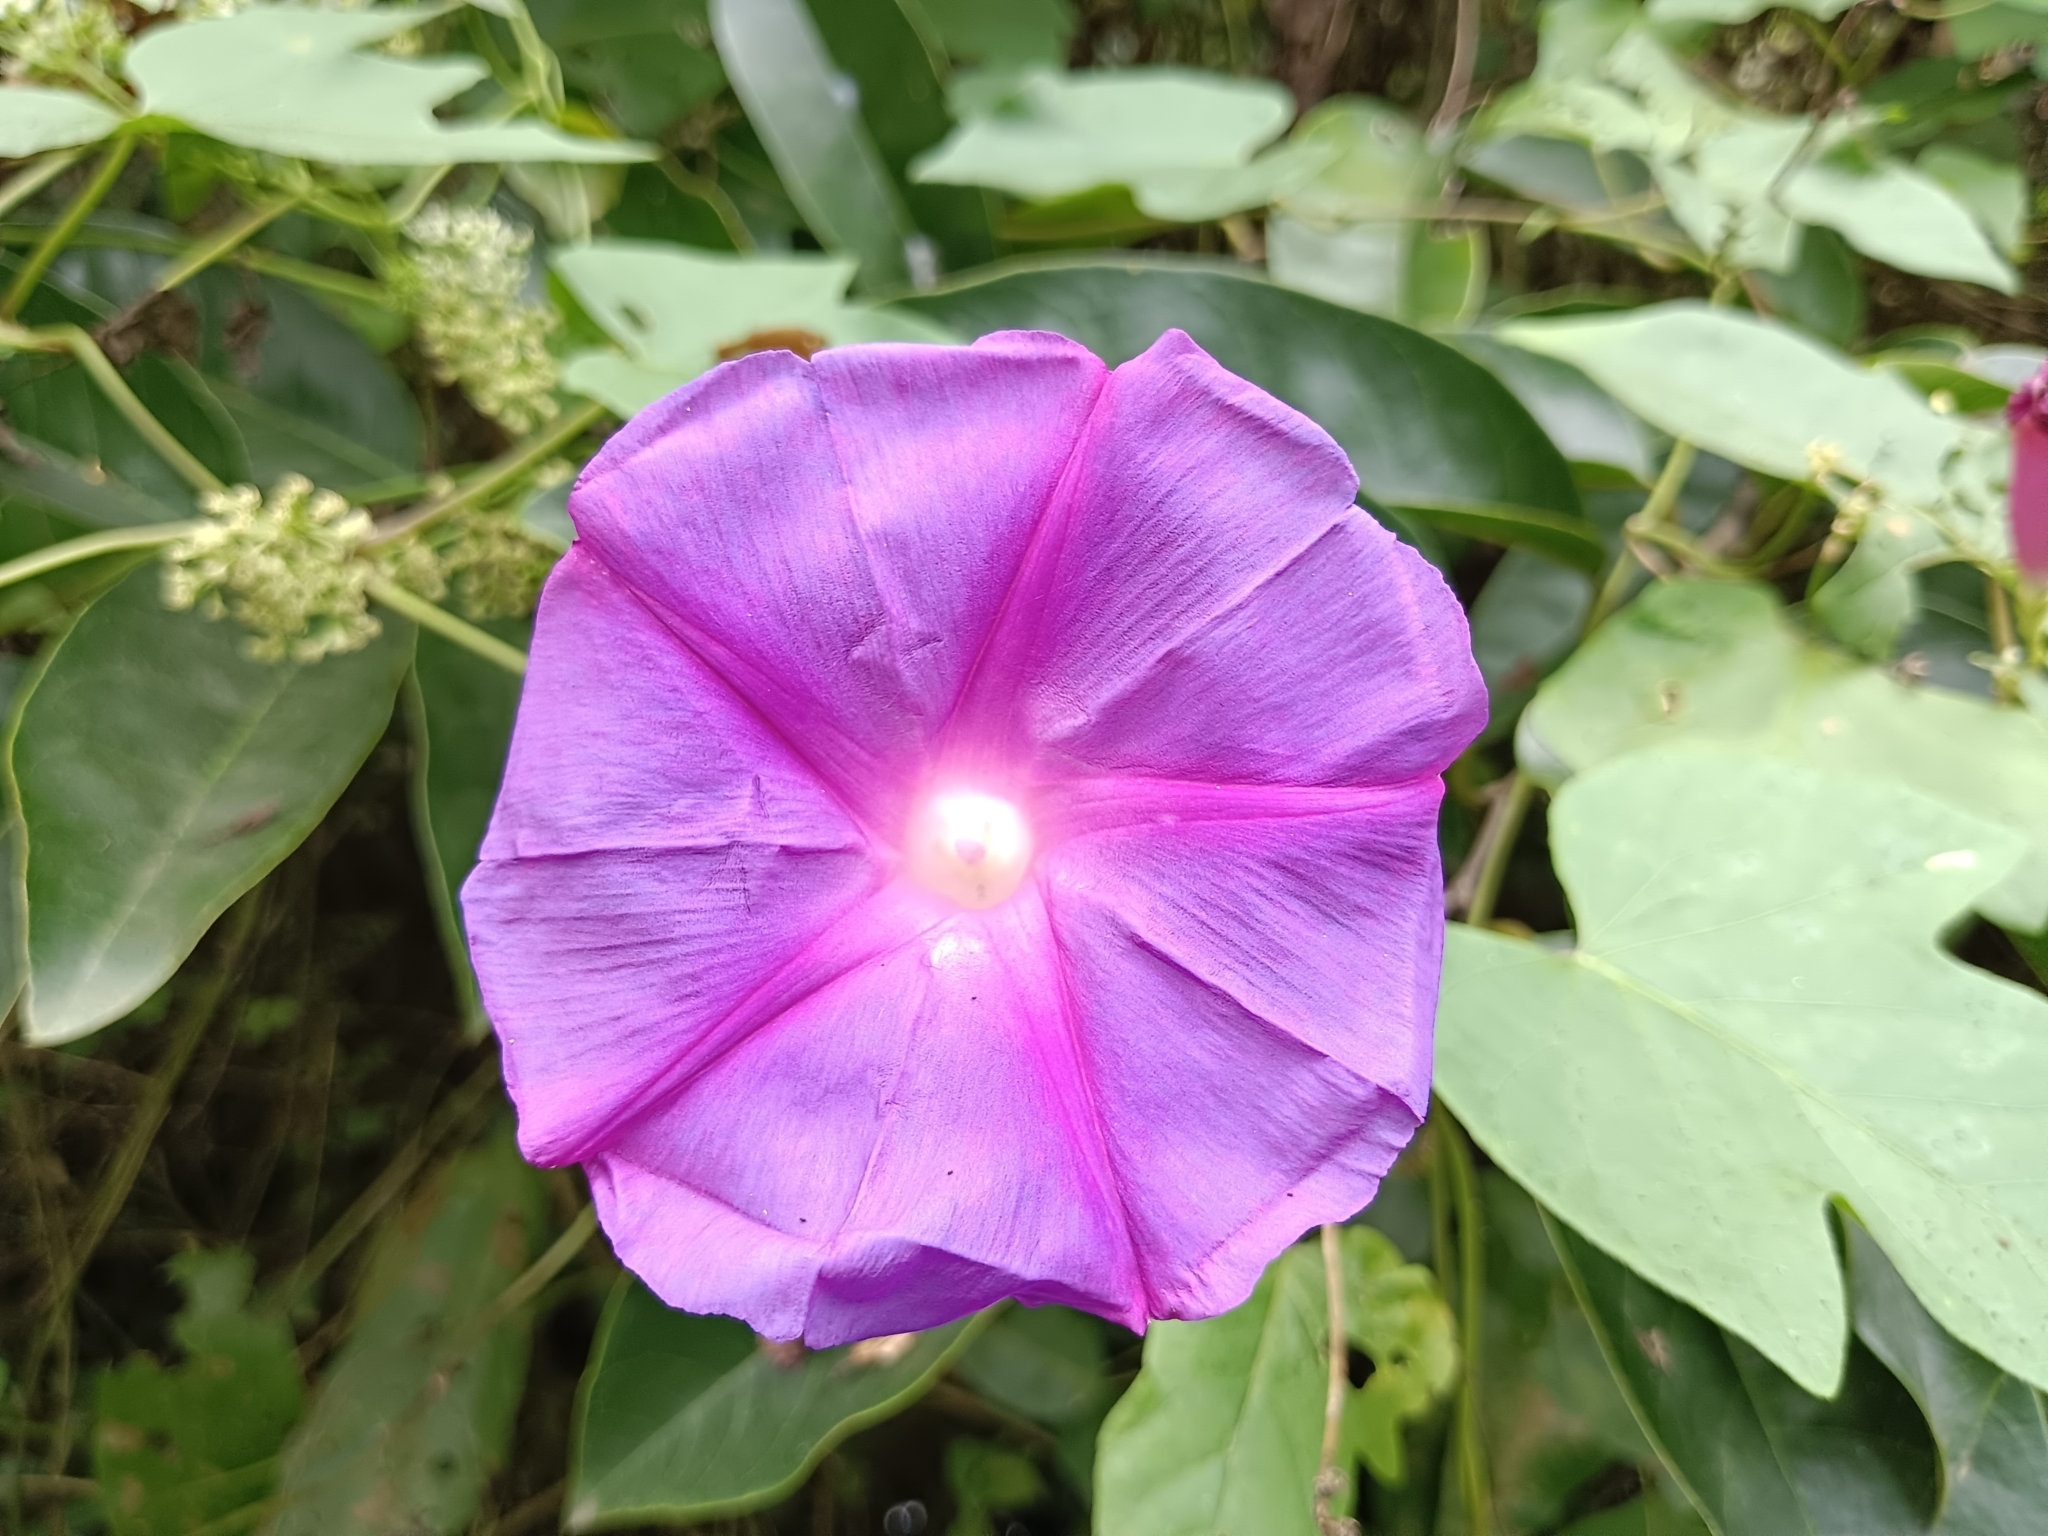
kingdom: Plantae
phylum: Tracheophyta
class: Magnoliopsida
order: Solanales
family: Convolvulaceae
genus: Ipomoea
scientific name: Ipomoea indica
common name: Blue dawnflower
